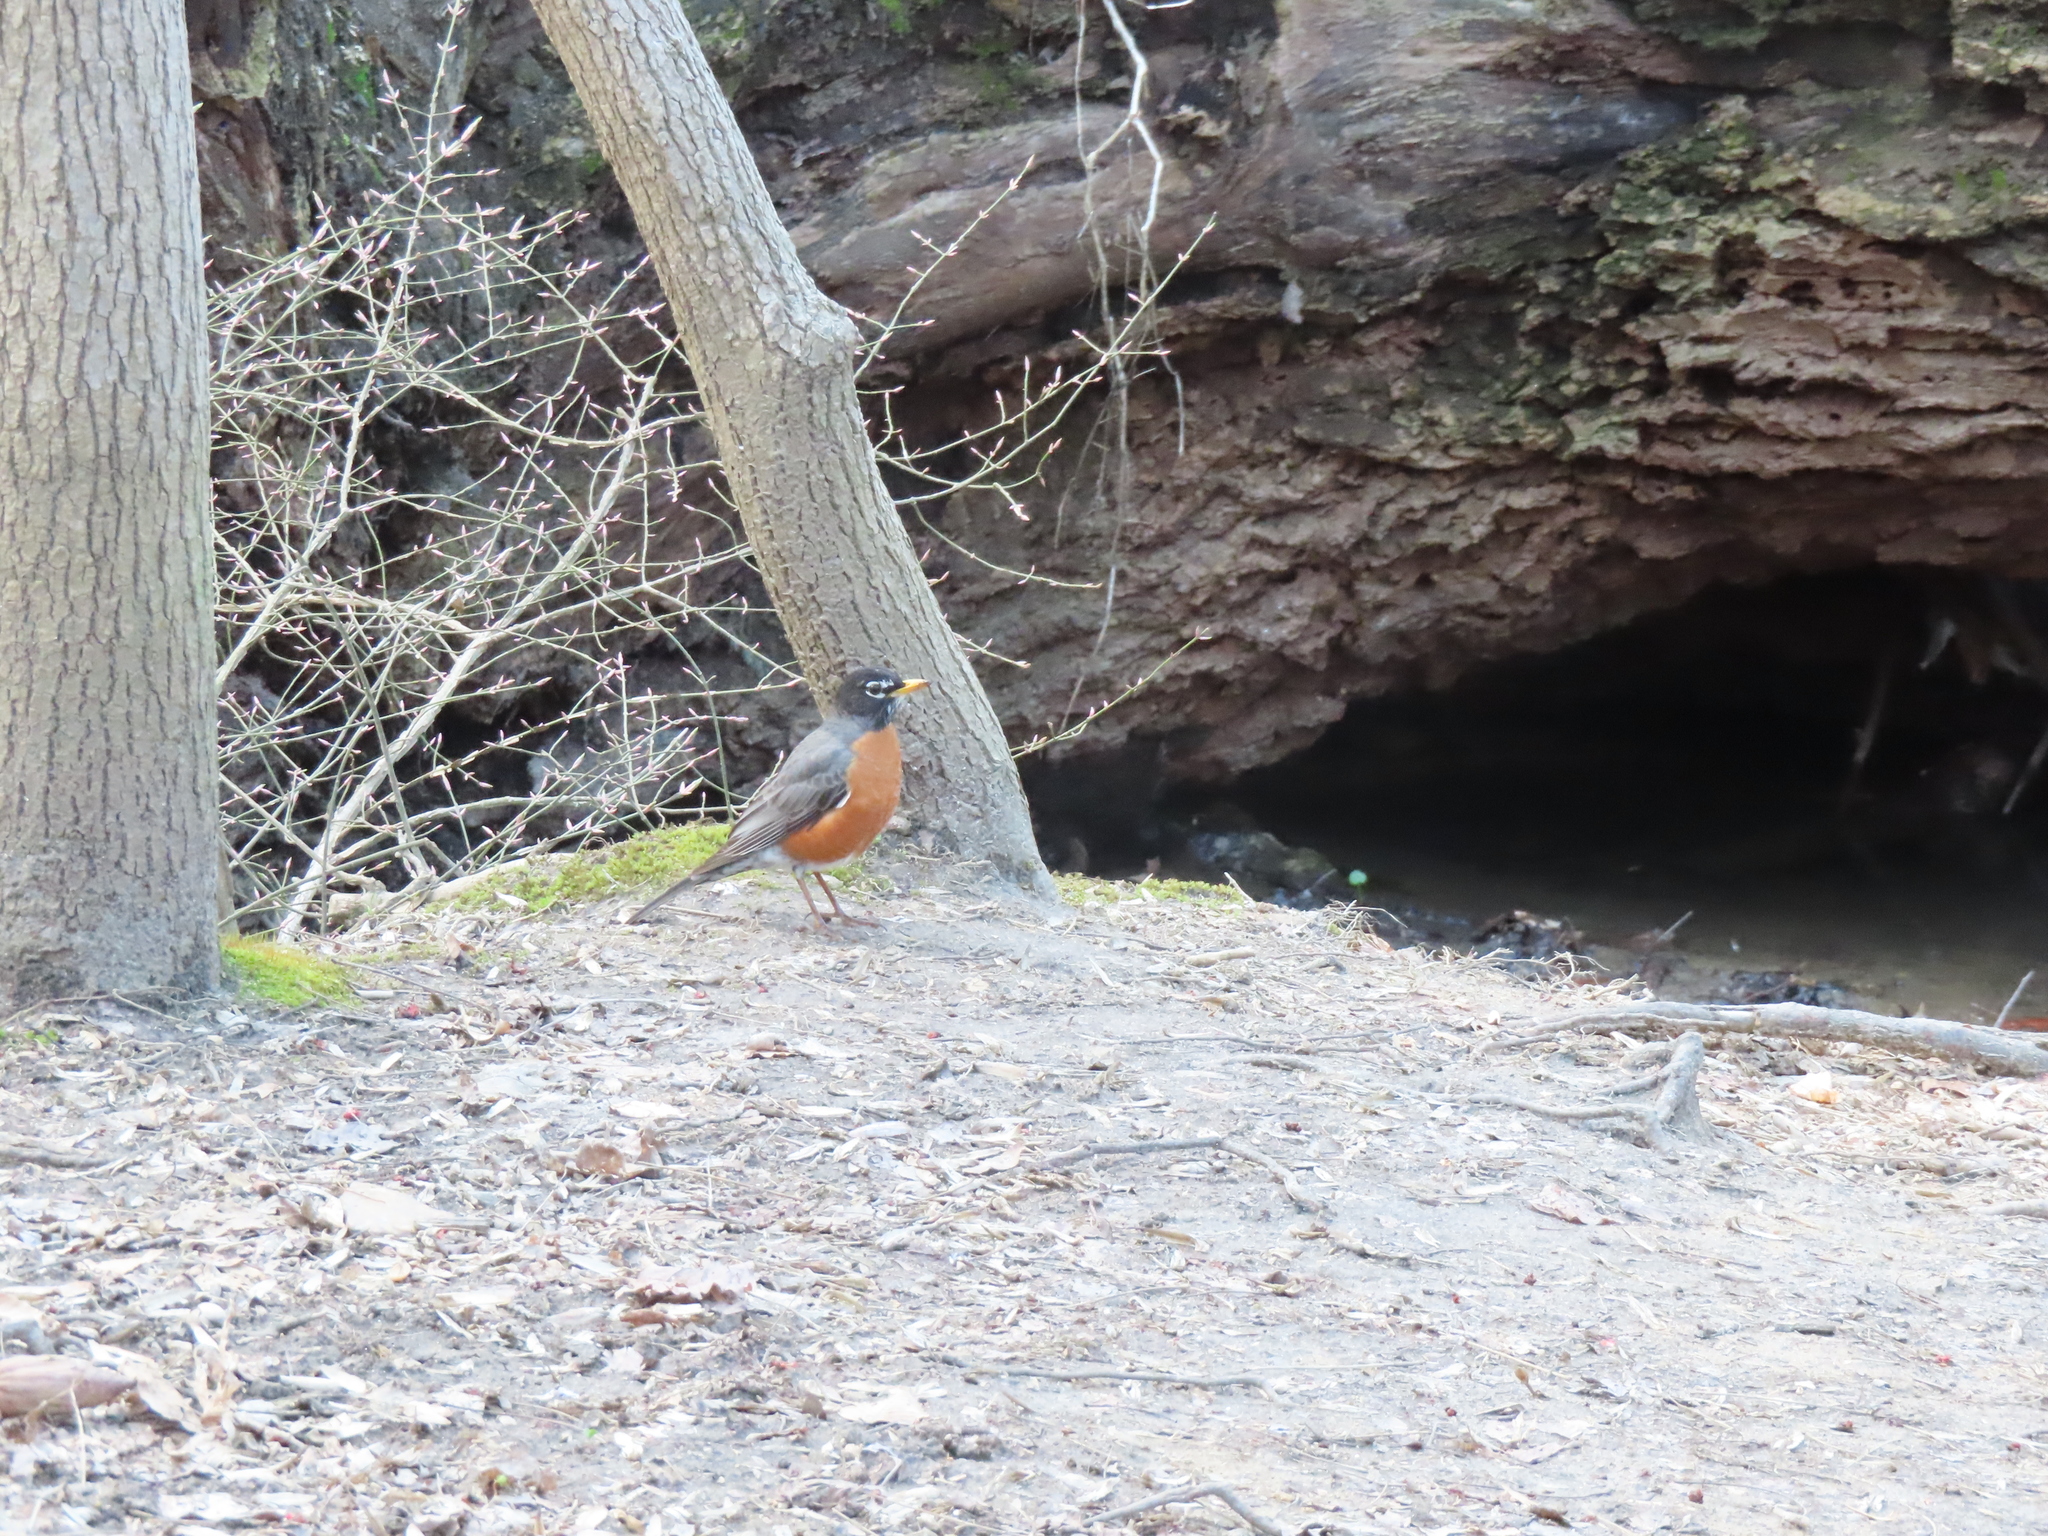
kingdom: Animalia
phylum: Chordata
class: Aves
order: Passeriformes
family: Turdidae
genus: Turdus
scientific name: Turdus migratorius
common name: American robin
